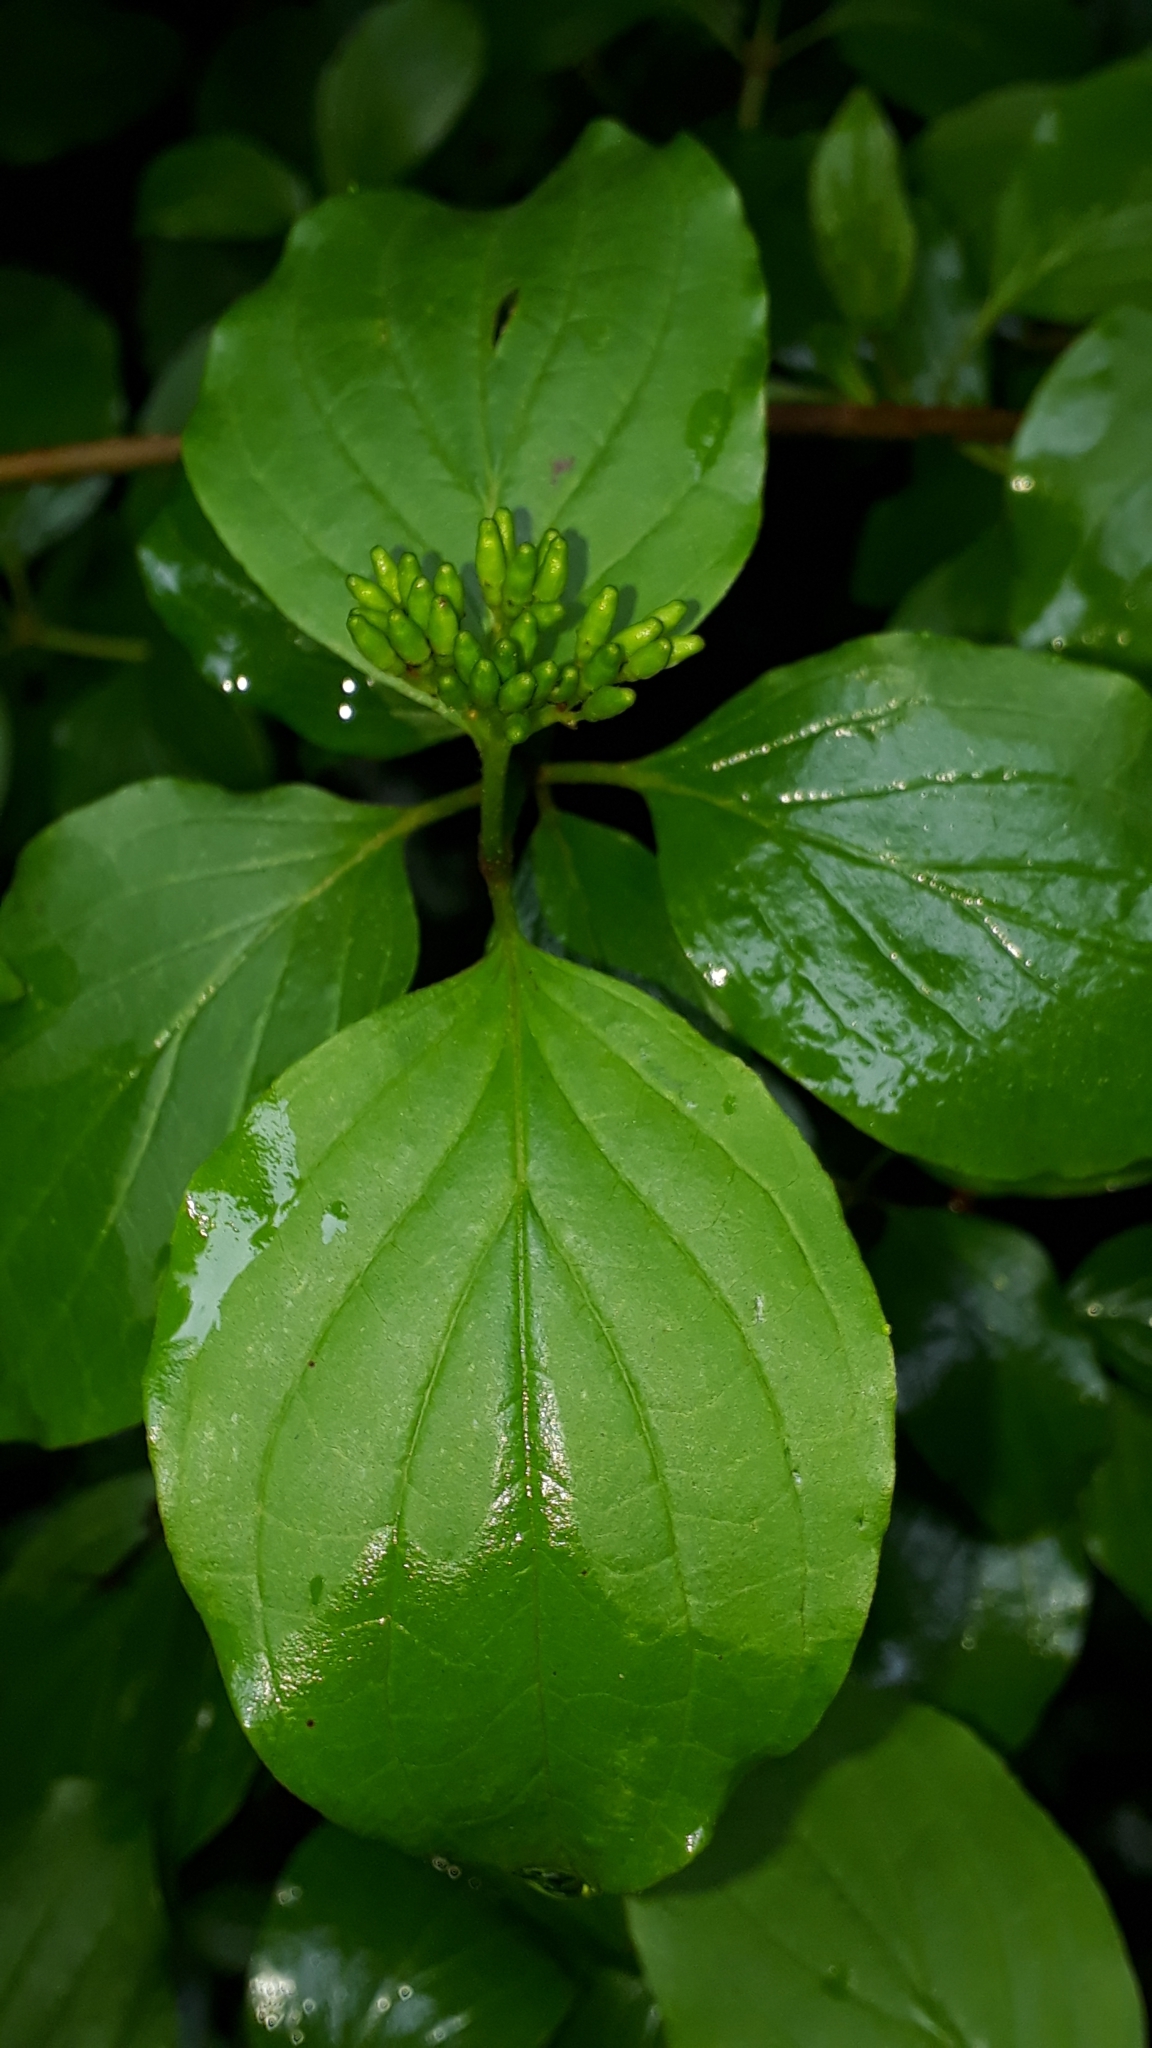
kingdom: Plantae
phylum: Tracheophyta
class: Magnoliopsida
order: Cornales
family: Cornaceae
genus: Cornus
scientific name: Cornus sanguinea
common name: Dogwood
